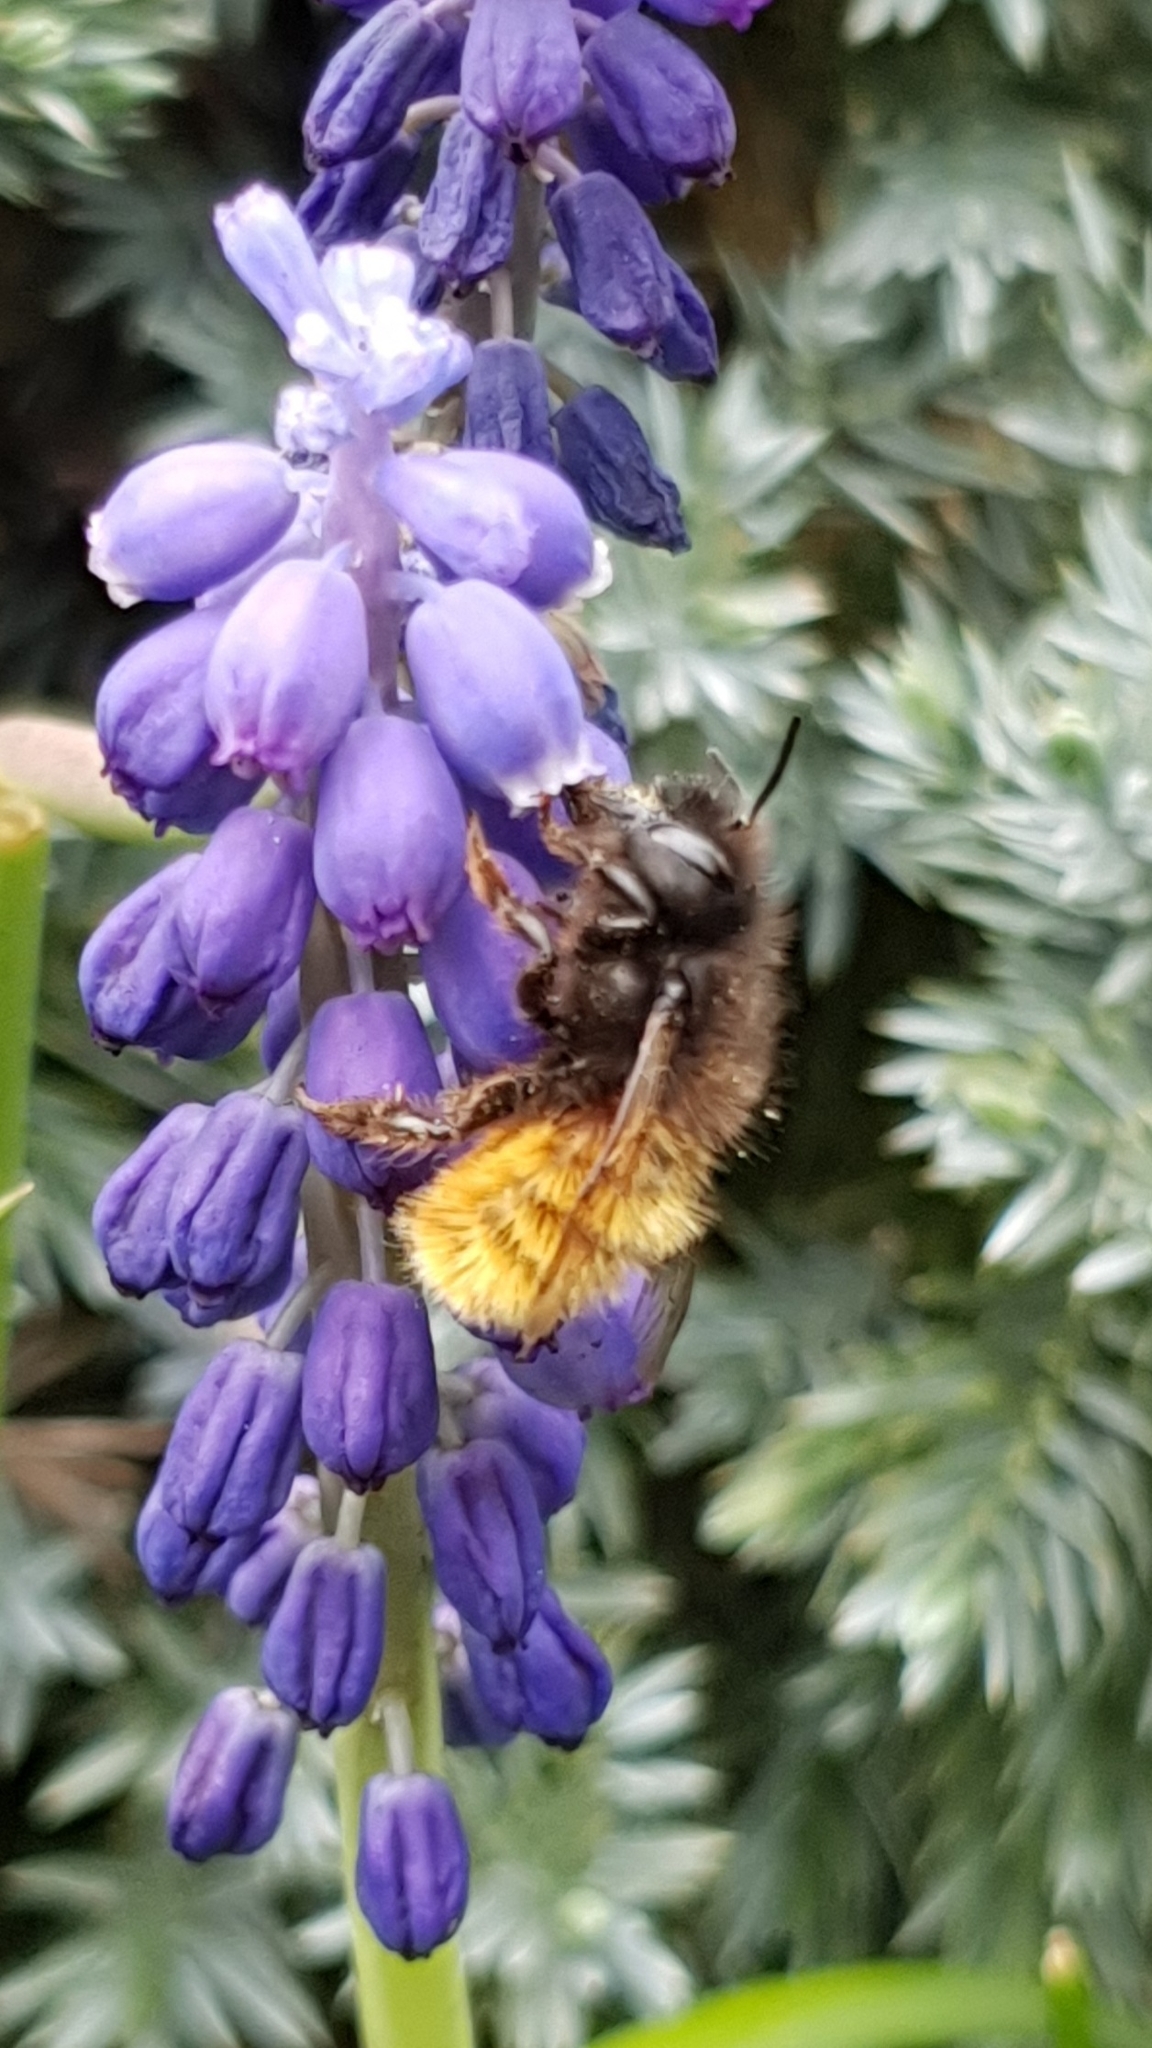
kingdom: Animalia
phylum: Arthropoda
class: Insecta
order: Hymenoptera
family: Megachilidae
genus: Osmia
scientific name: Osmia cornuta
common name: Mason bee
